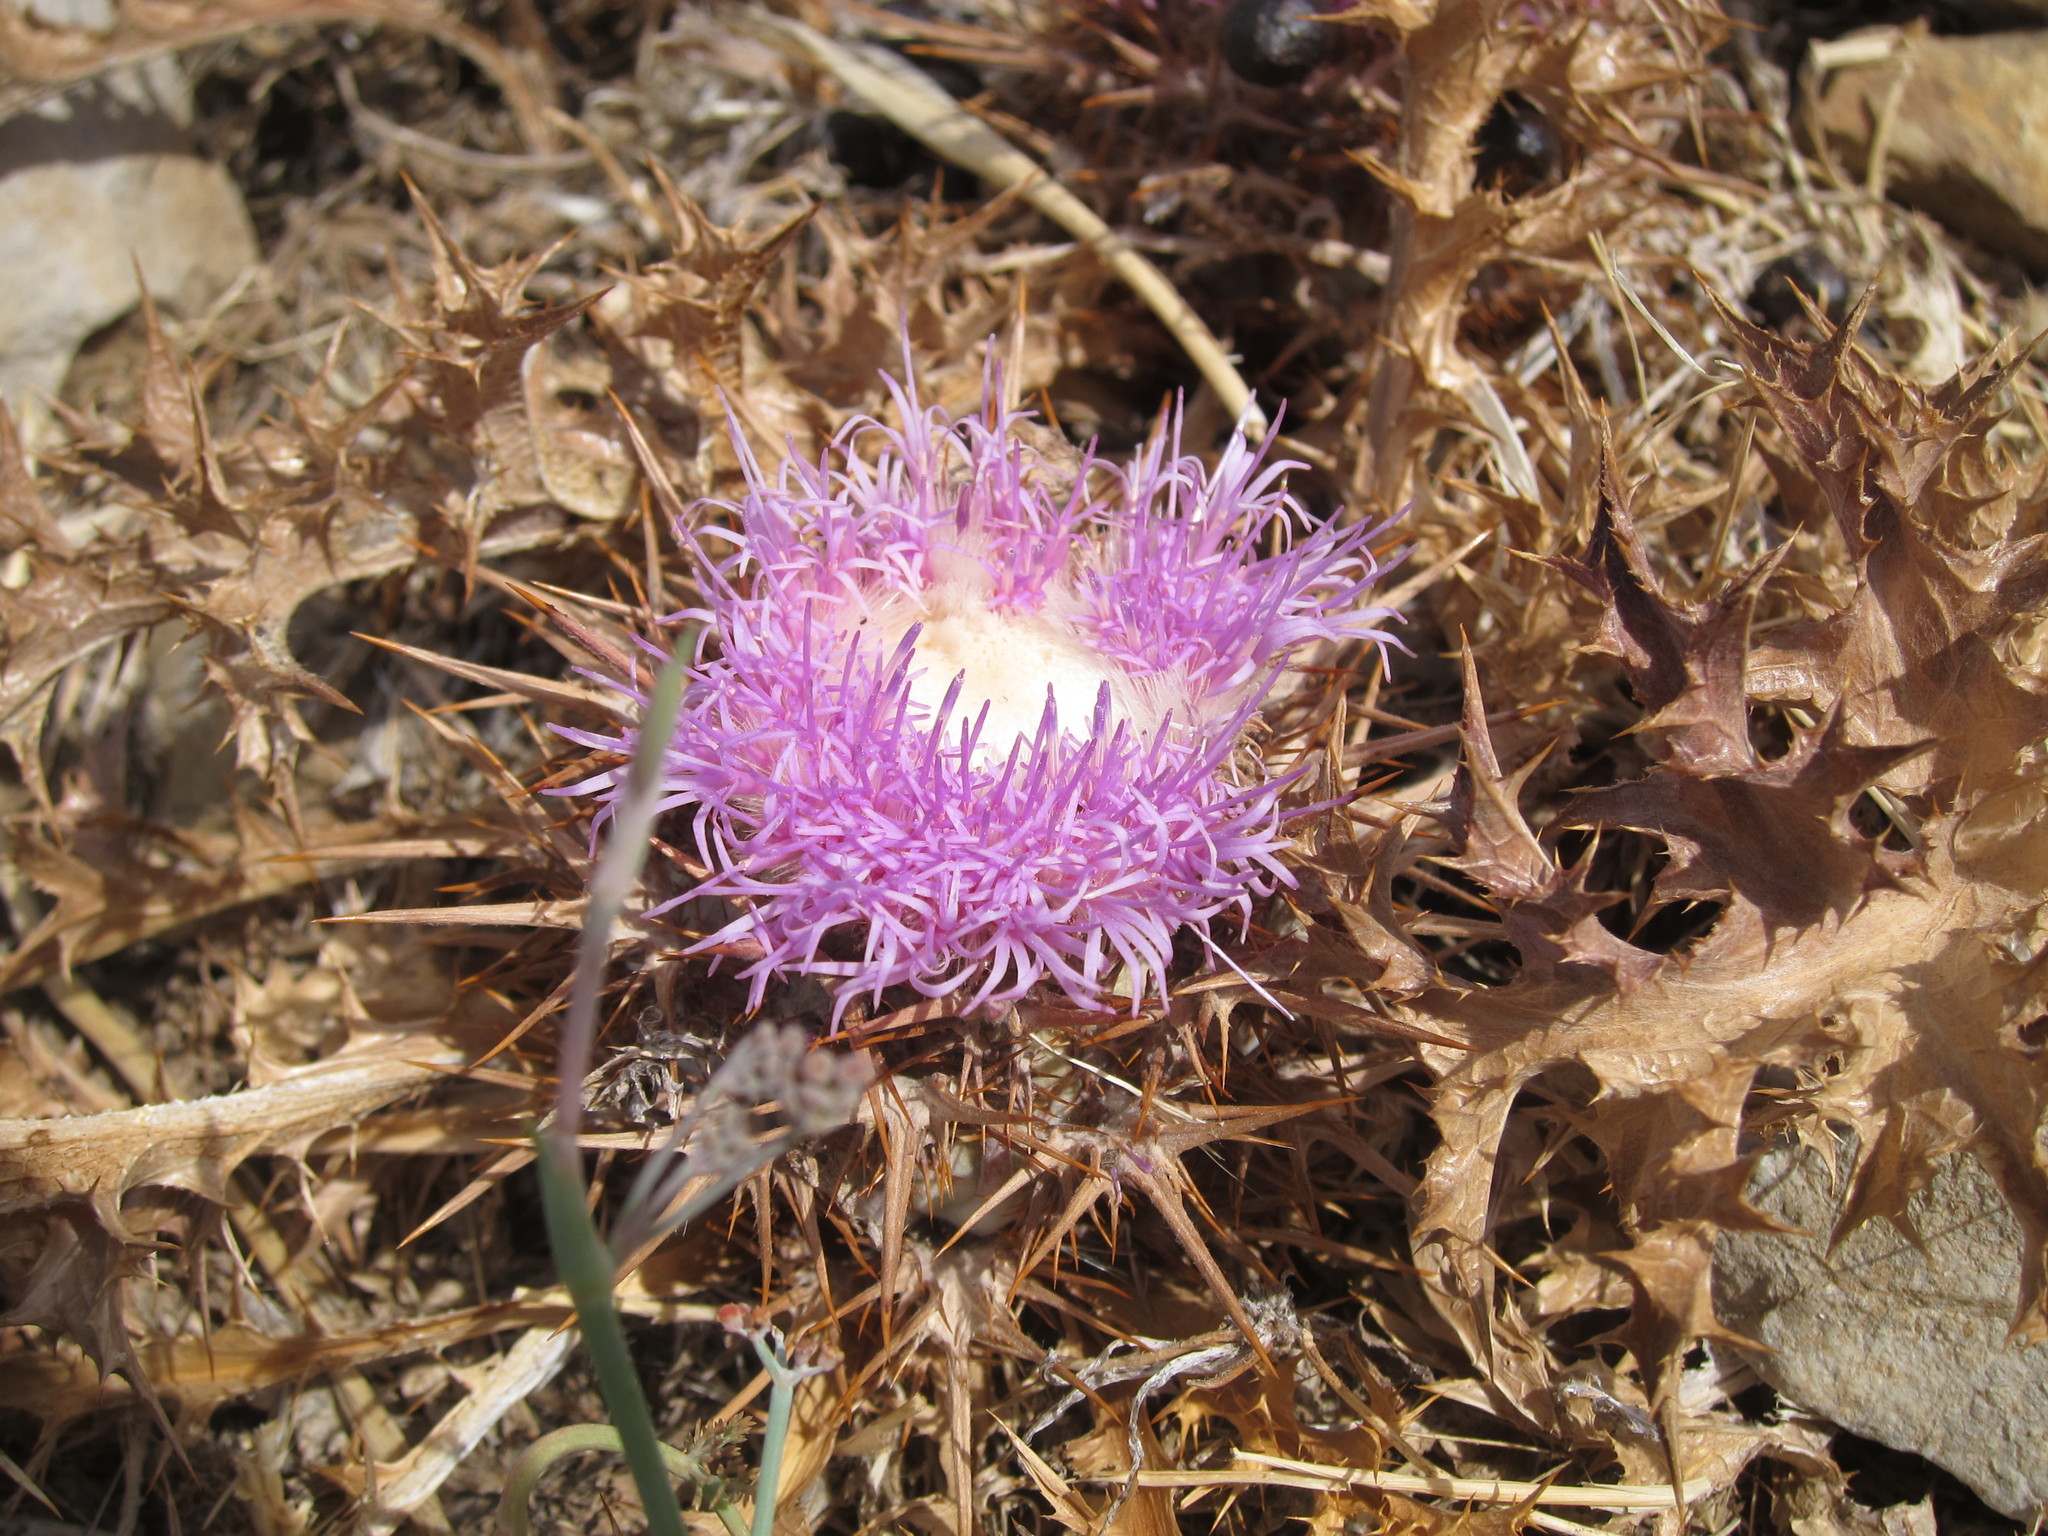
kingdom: Plantae
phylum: Tracheophyta
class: Magnoliopsida
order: Asterales
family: Asteraceae
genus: Chamaeleon
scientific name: Chamaeleon gummifer
